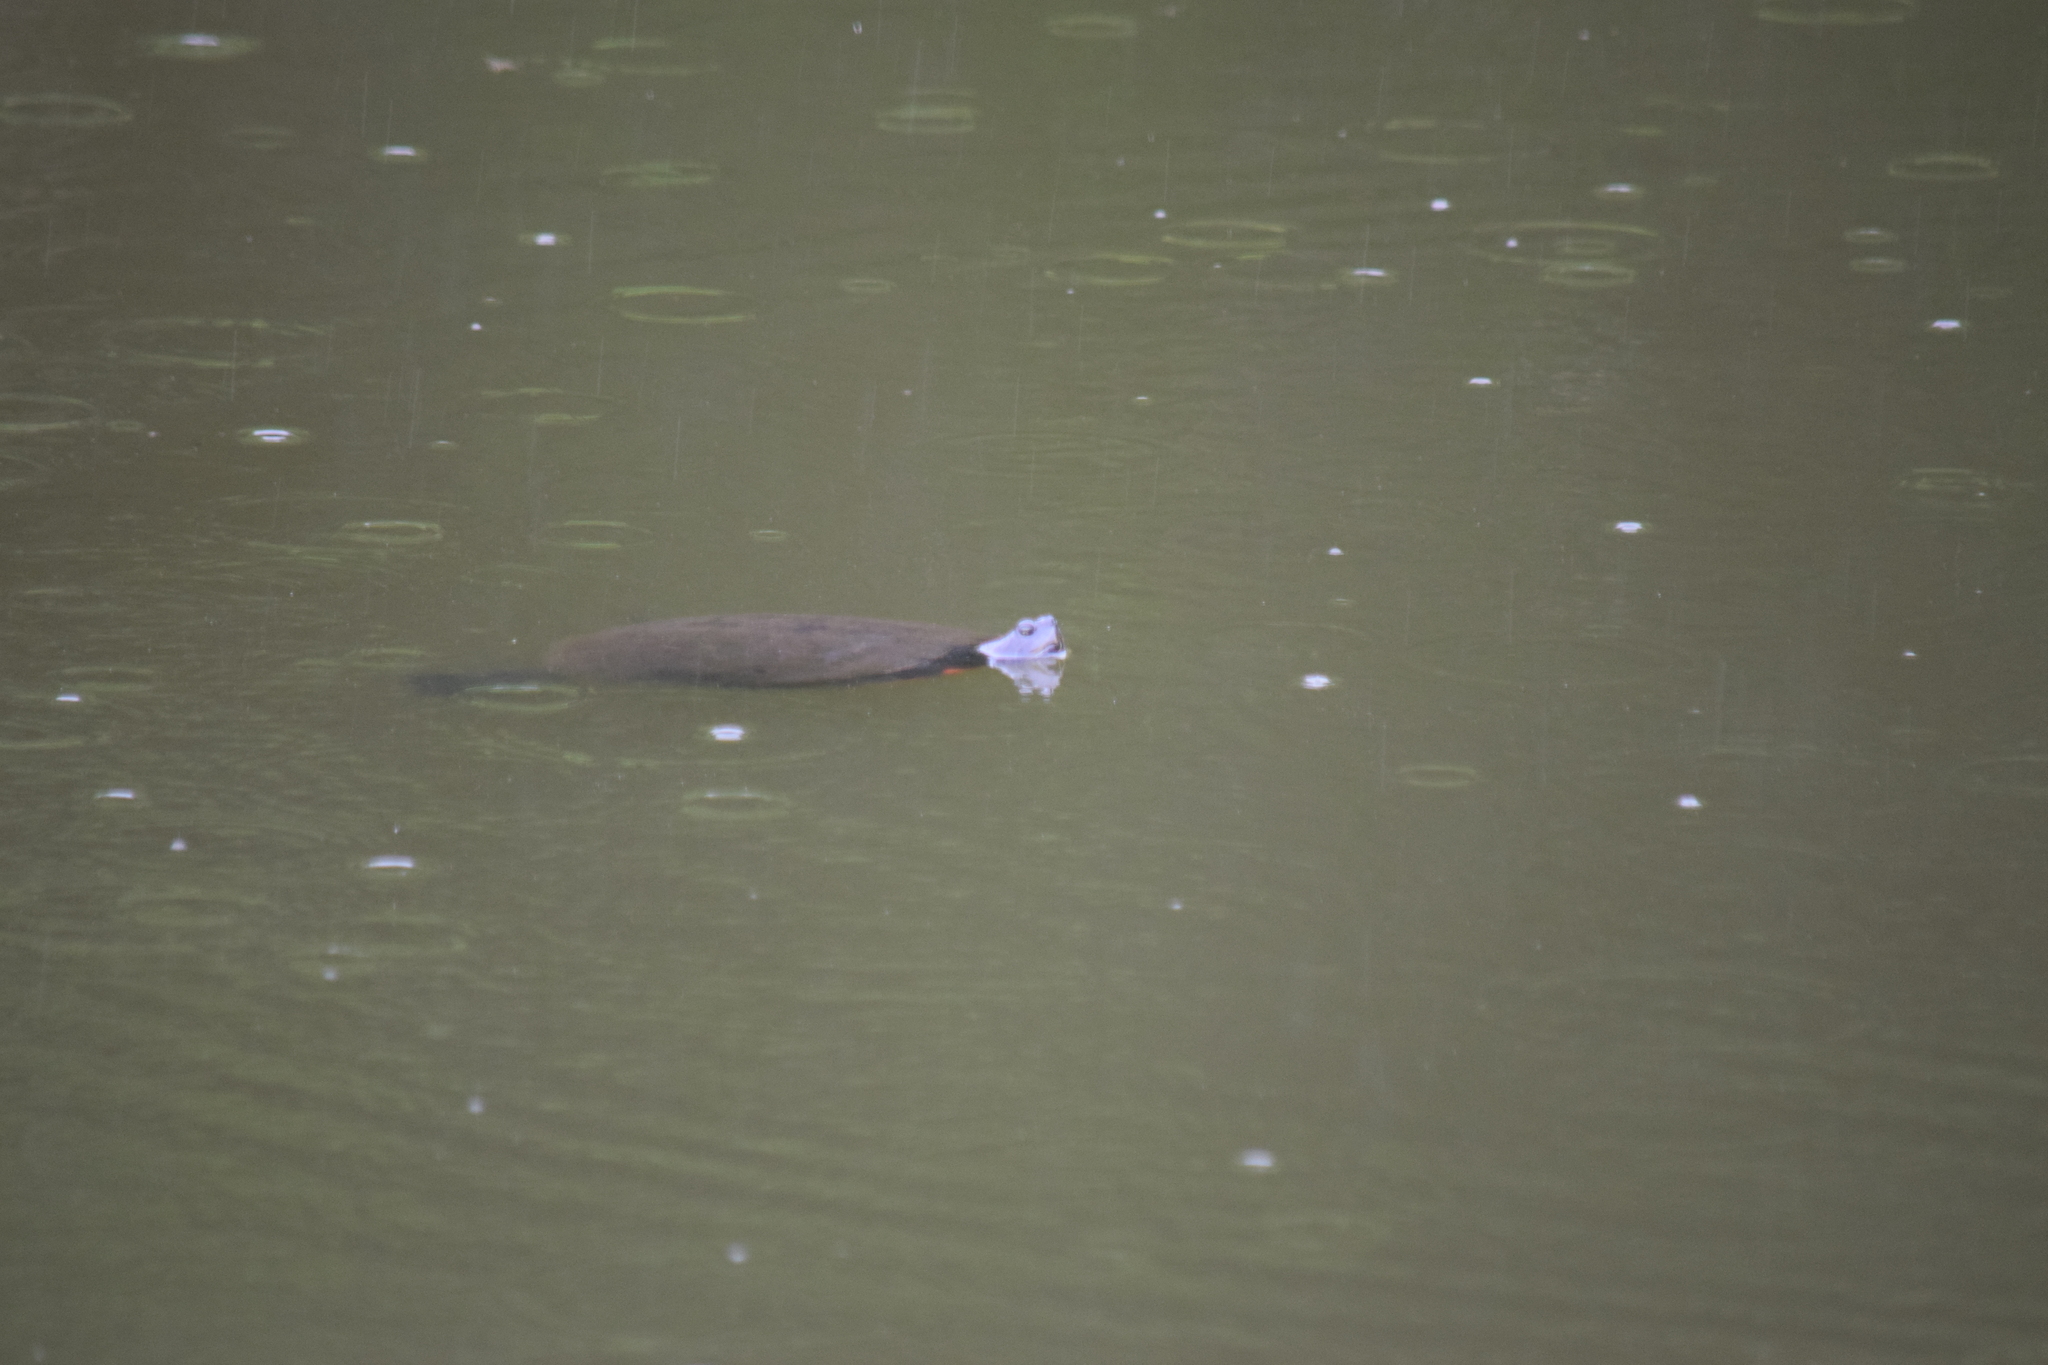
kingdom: Animalia
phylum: Chordata
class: Testudines
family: Emydidae
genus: Pseudemys
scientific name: Pseudemys rubriventris
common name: American red-bellied turtle
